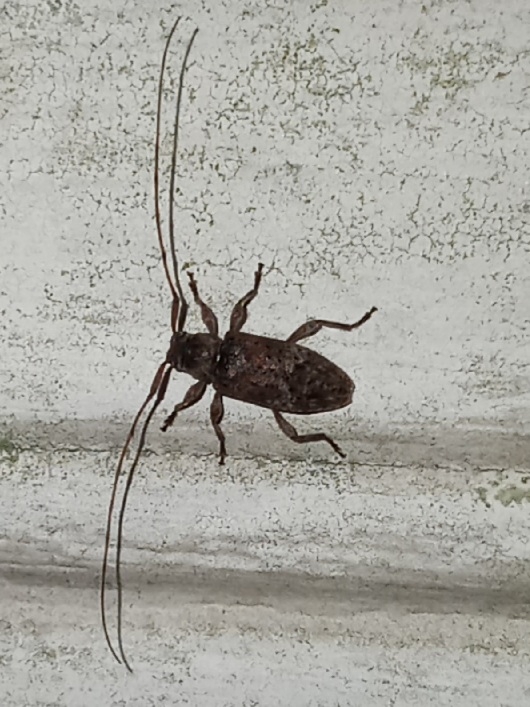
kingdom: Animalia
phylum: Arthropoda
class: Insecta
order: Coleoptera
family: Cerambycidae
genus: Sternidius
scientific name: Sternidius alpha
